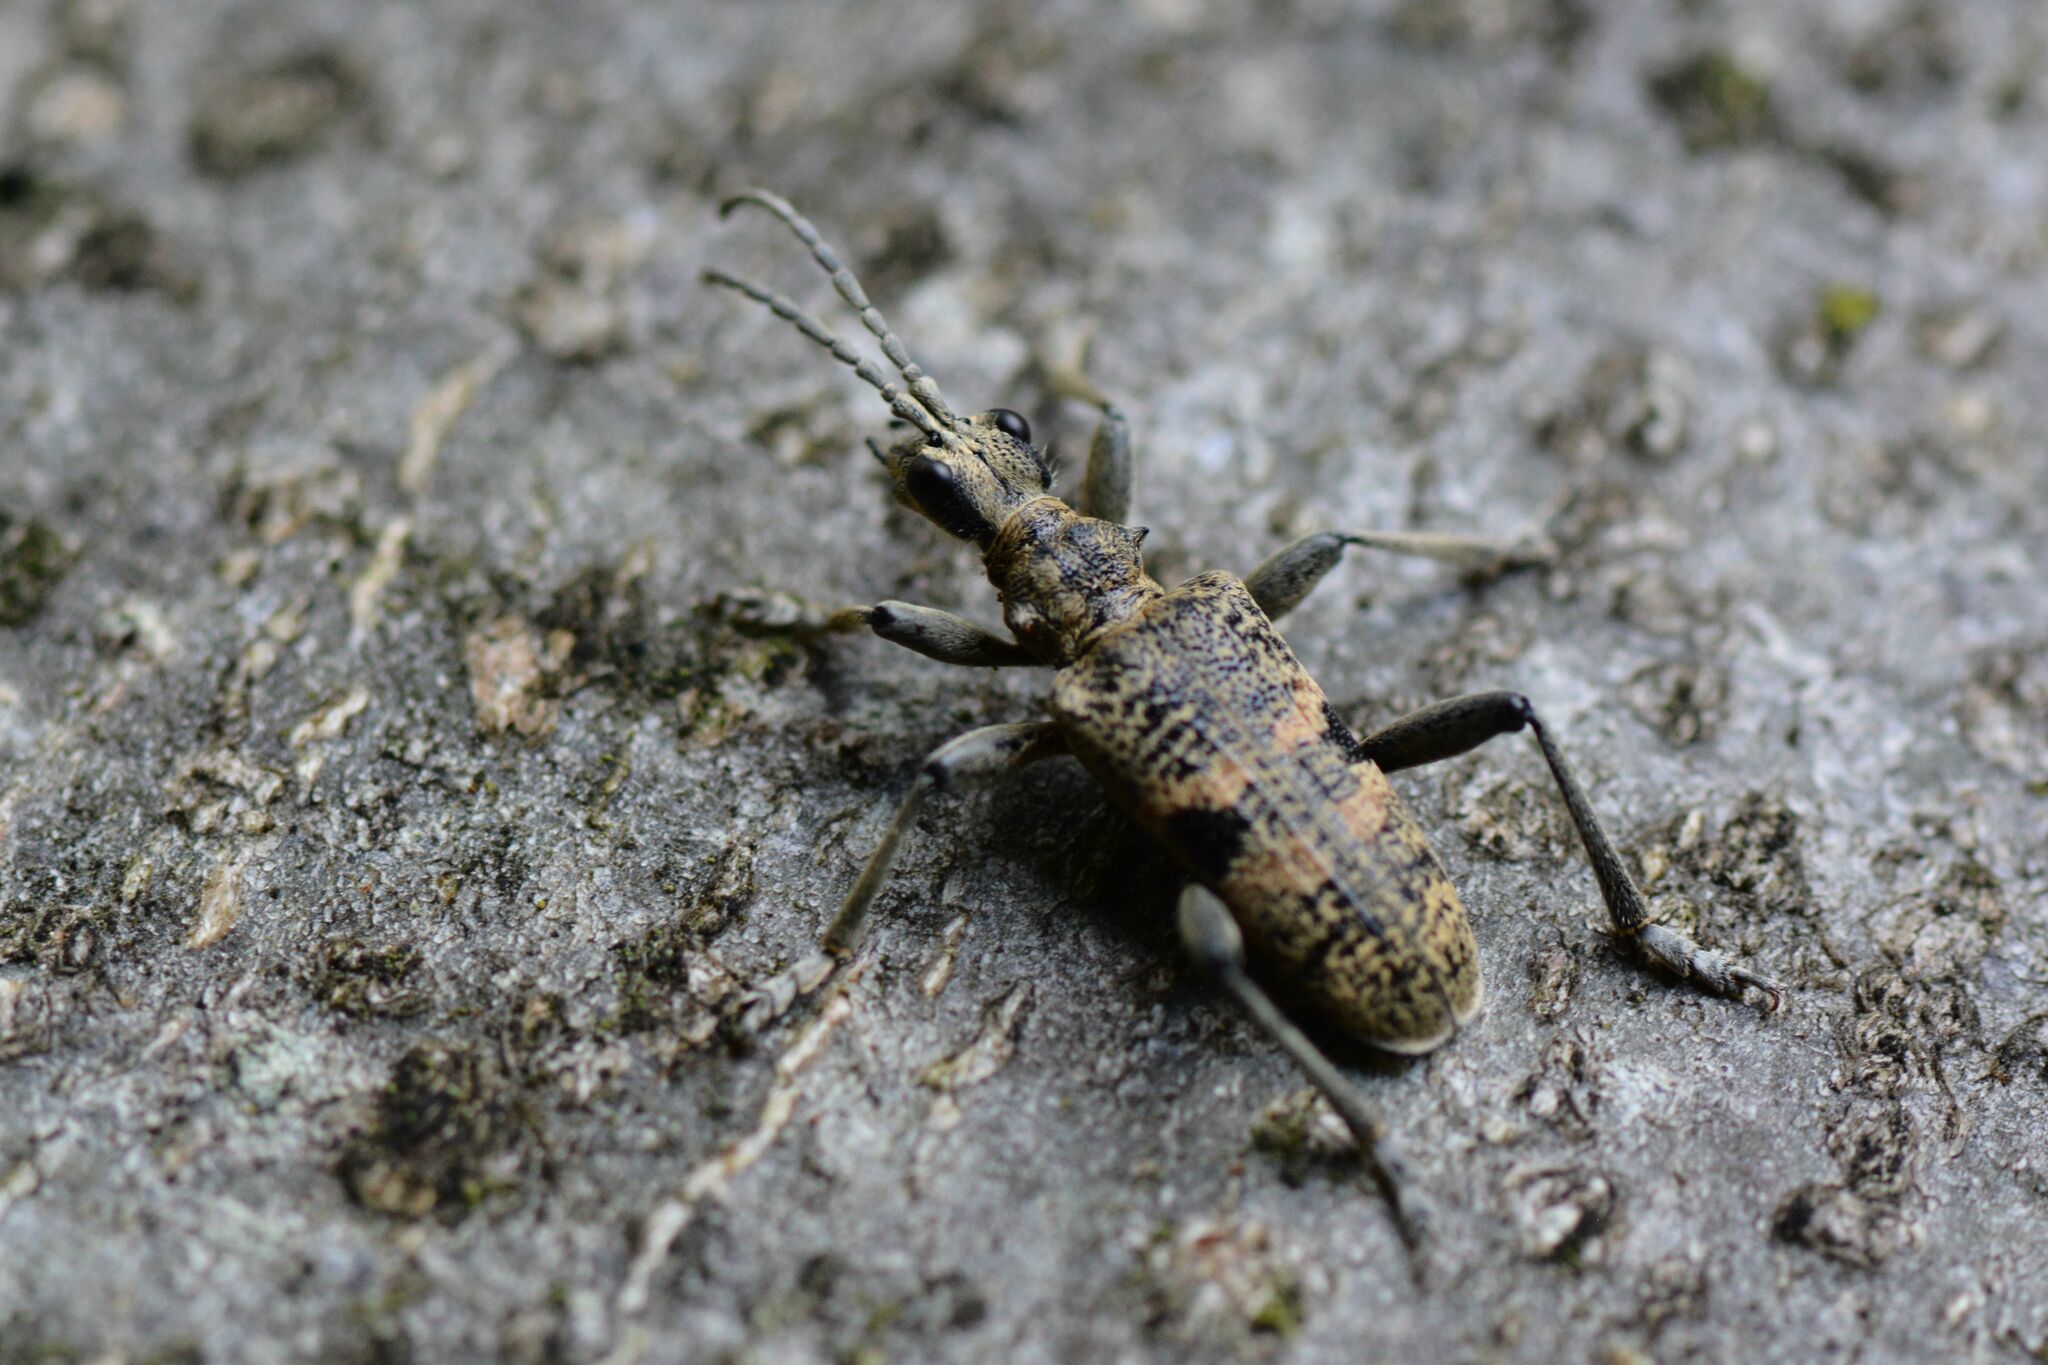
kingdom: Animalia
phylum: Arthropoda
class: Insecta
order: Coleoptera
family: Cerambycidae
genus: Rhagium
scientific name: Rhagium mordax
